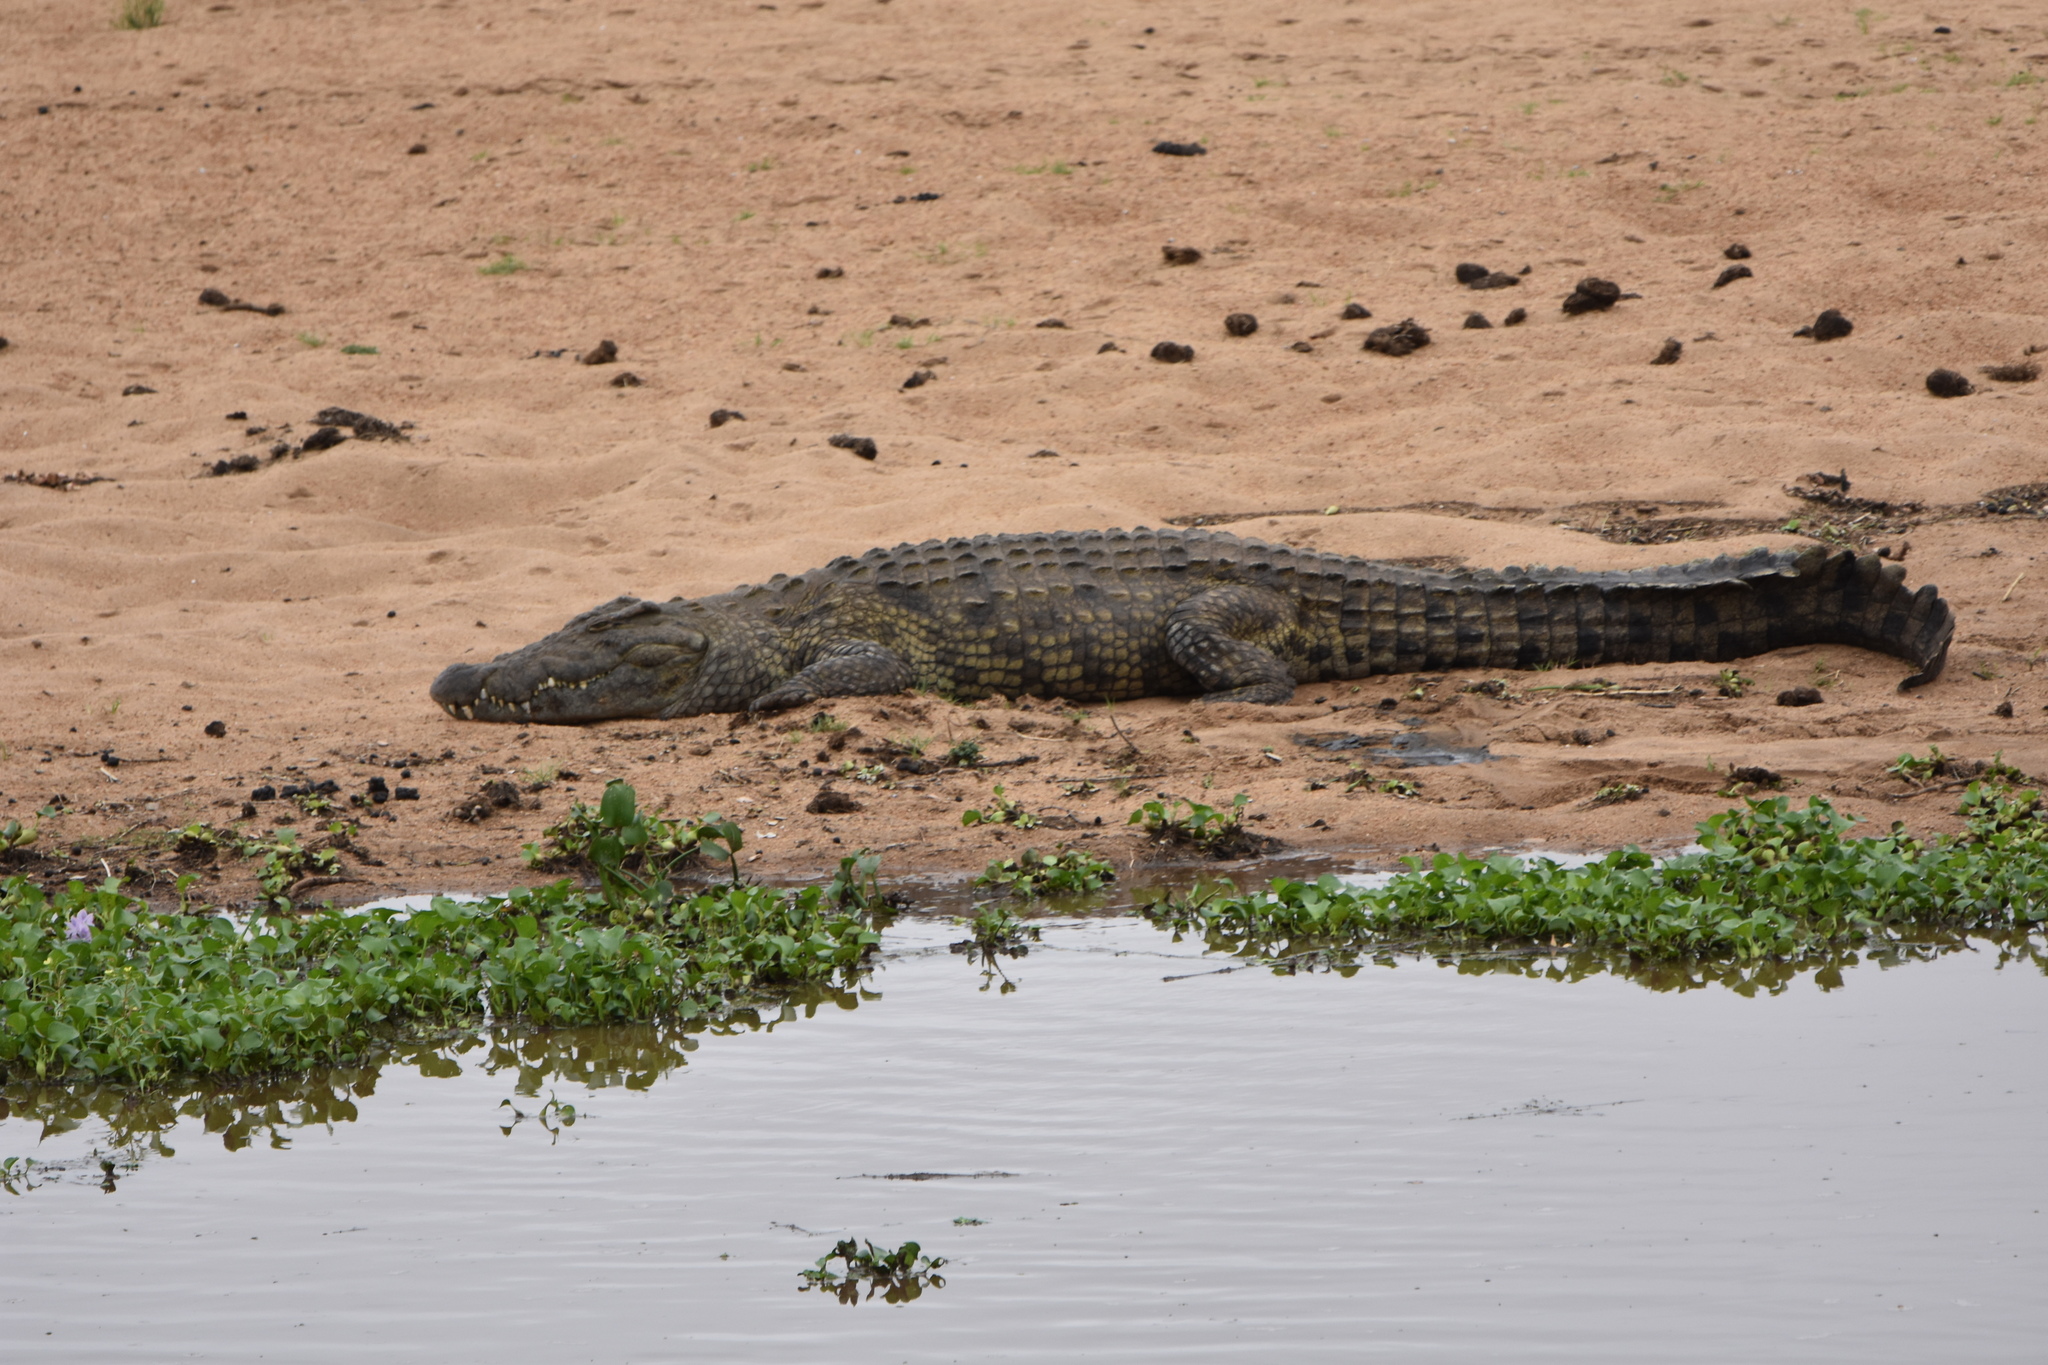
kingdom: Animalia
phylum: Chordata
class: Crocodylia
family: Crocodylidae
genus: Crocodylus
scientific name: Crocodylus niloticus
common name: Nile crocodile
